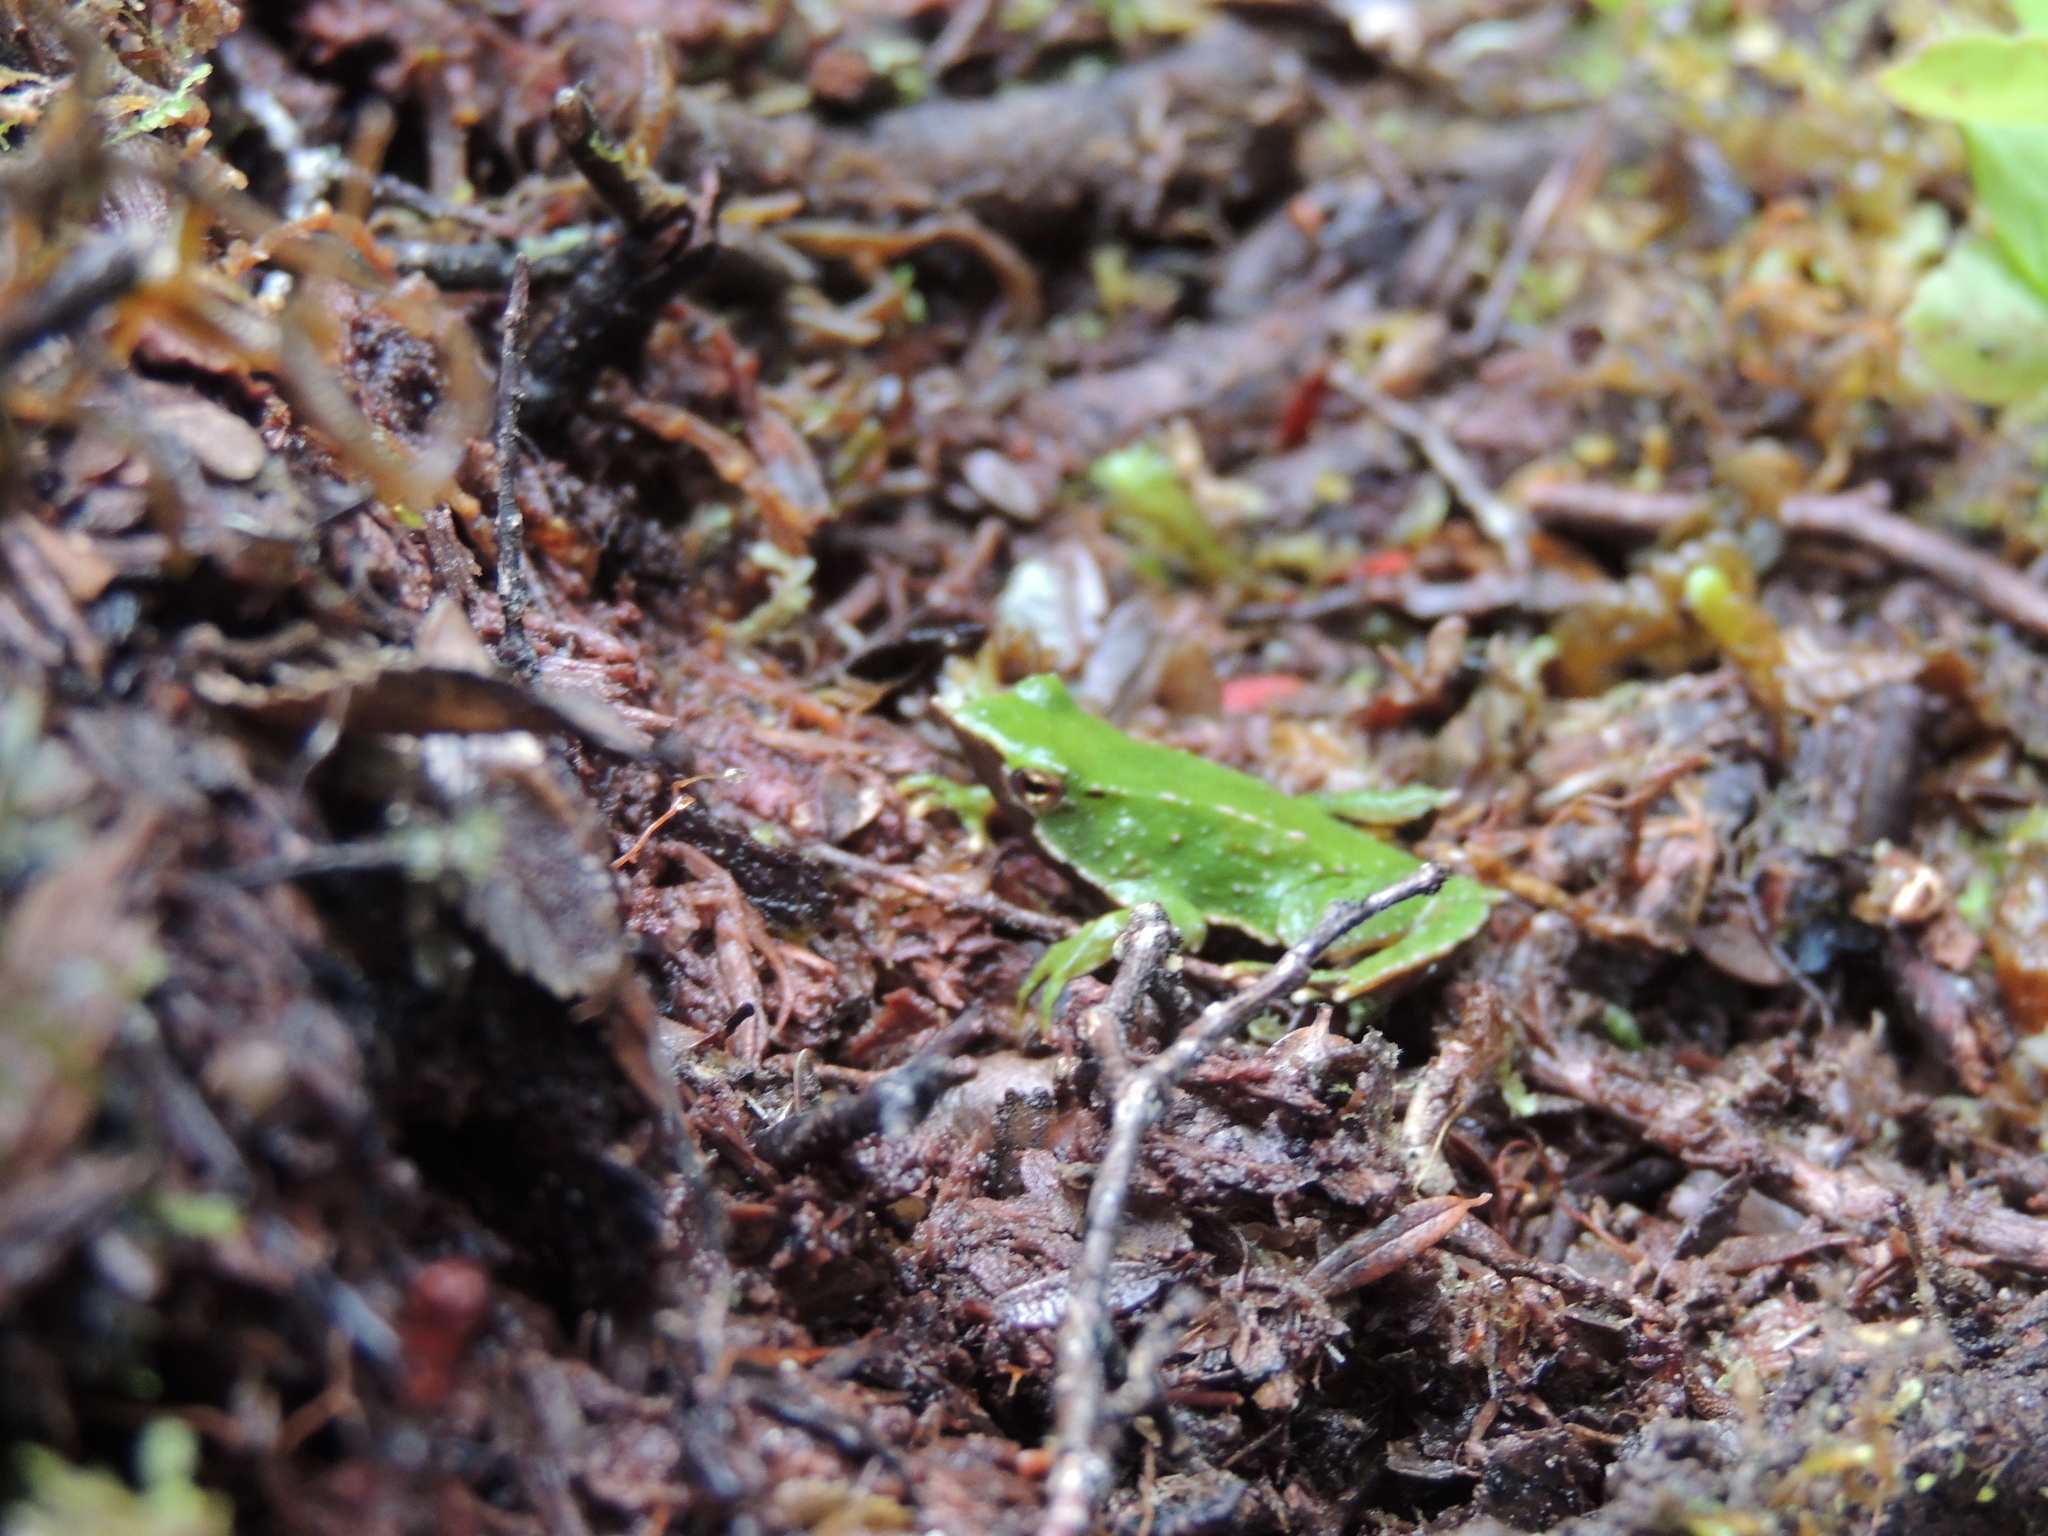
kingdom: Animalia
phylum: Chordata
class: Amphibia
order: Anura
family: Rhinodermatidae
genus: Rhinoderma
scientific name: Rhinoderma darwinii
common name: Darwin's frog
